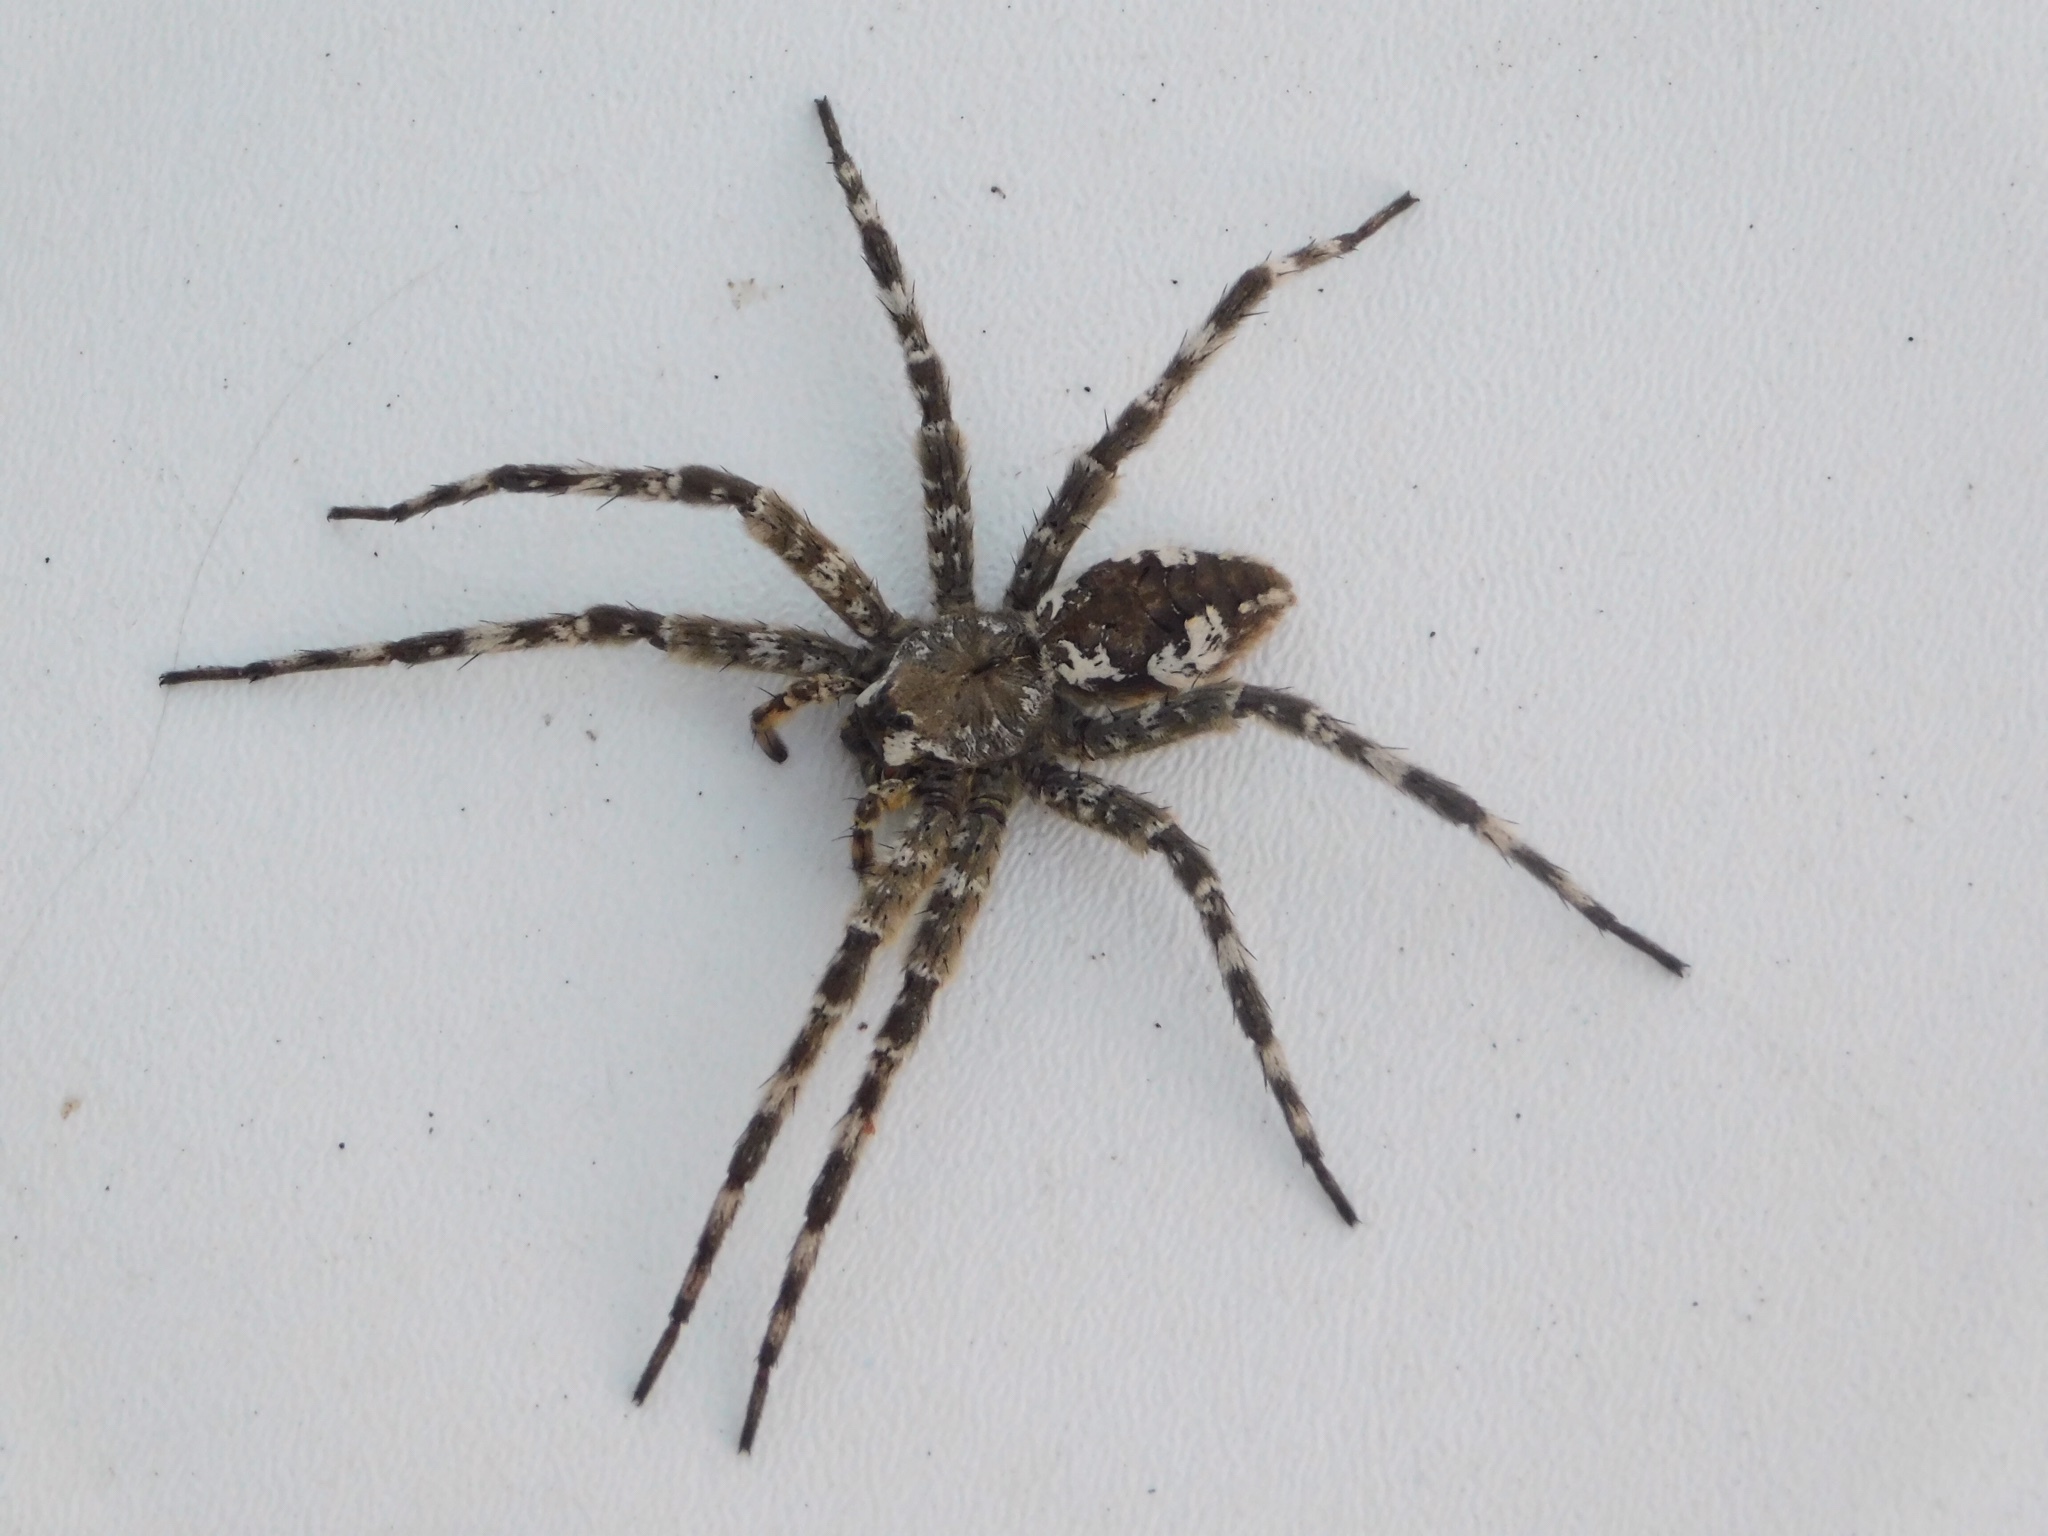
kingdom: Animalia
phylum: Arthropoda
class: Arachnida
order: Araneae
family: Pisauridae
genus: Dolomedes
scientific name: Dolomedes albineus
